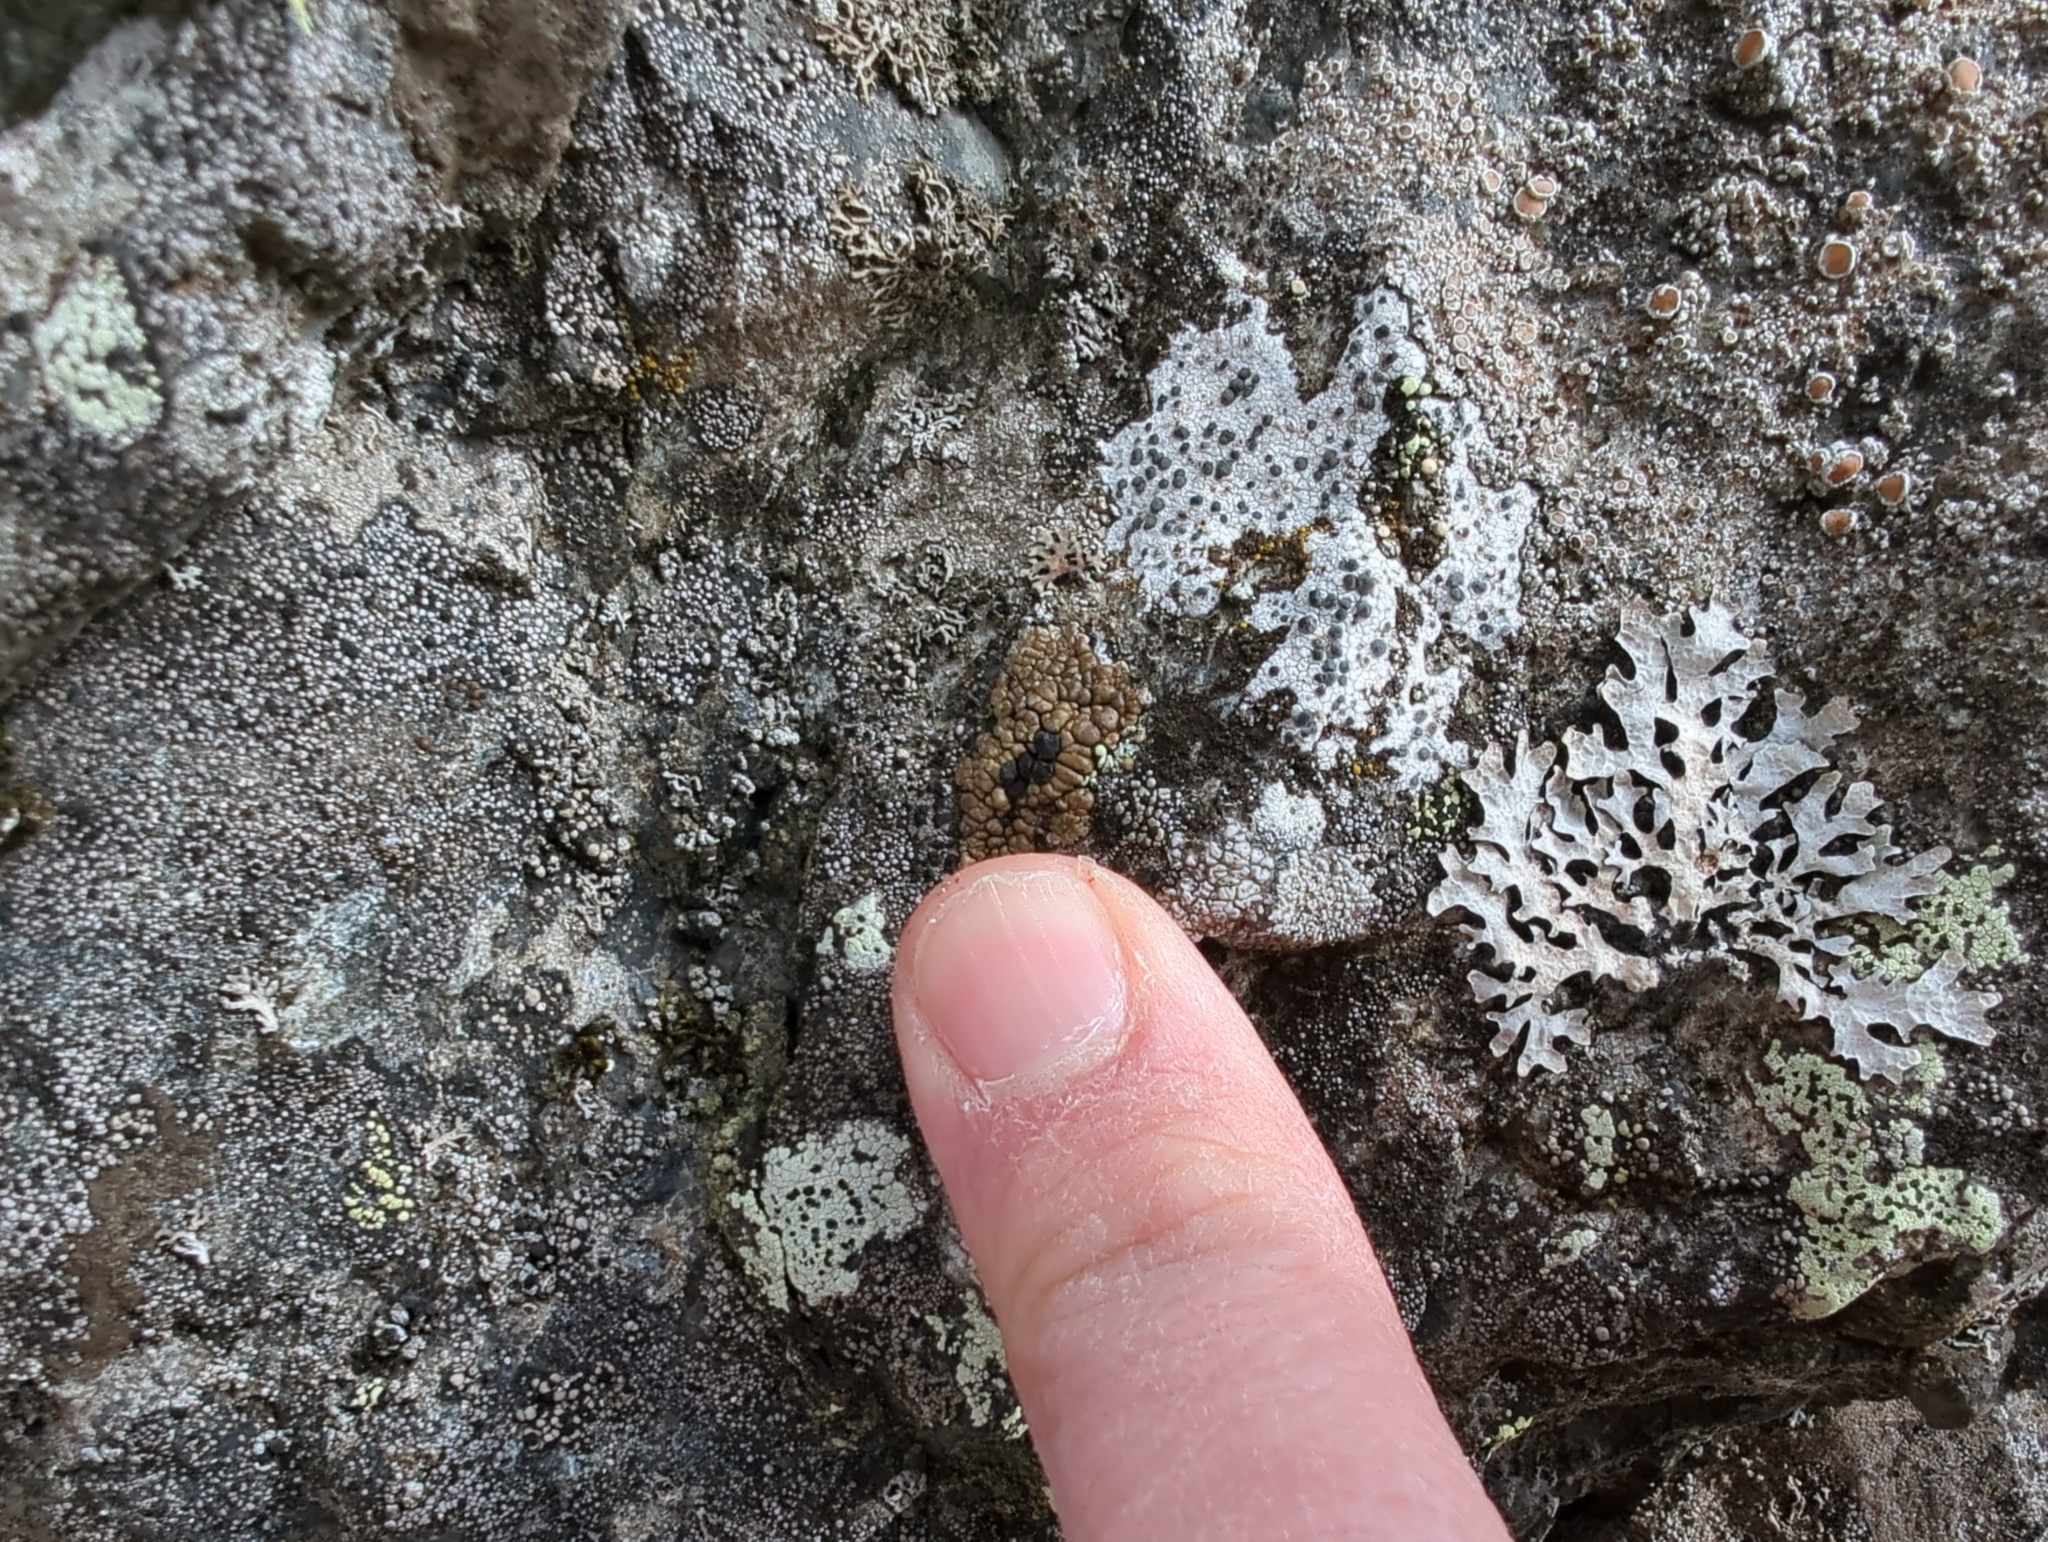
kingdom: Fungi
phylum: Ascomycota
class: Lecanoromycetes
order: Caliciales
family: Caliciaceae
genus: Buellia
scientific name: Buellia badia
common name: Parasitic button lichen
